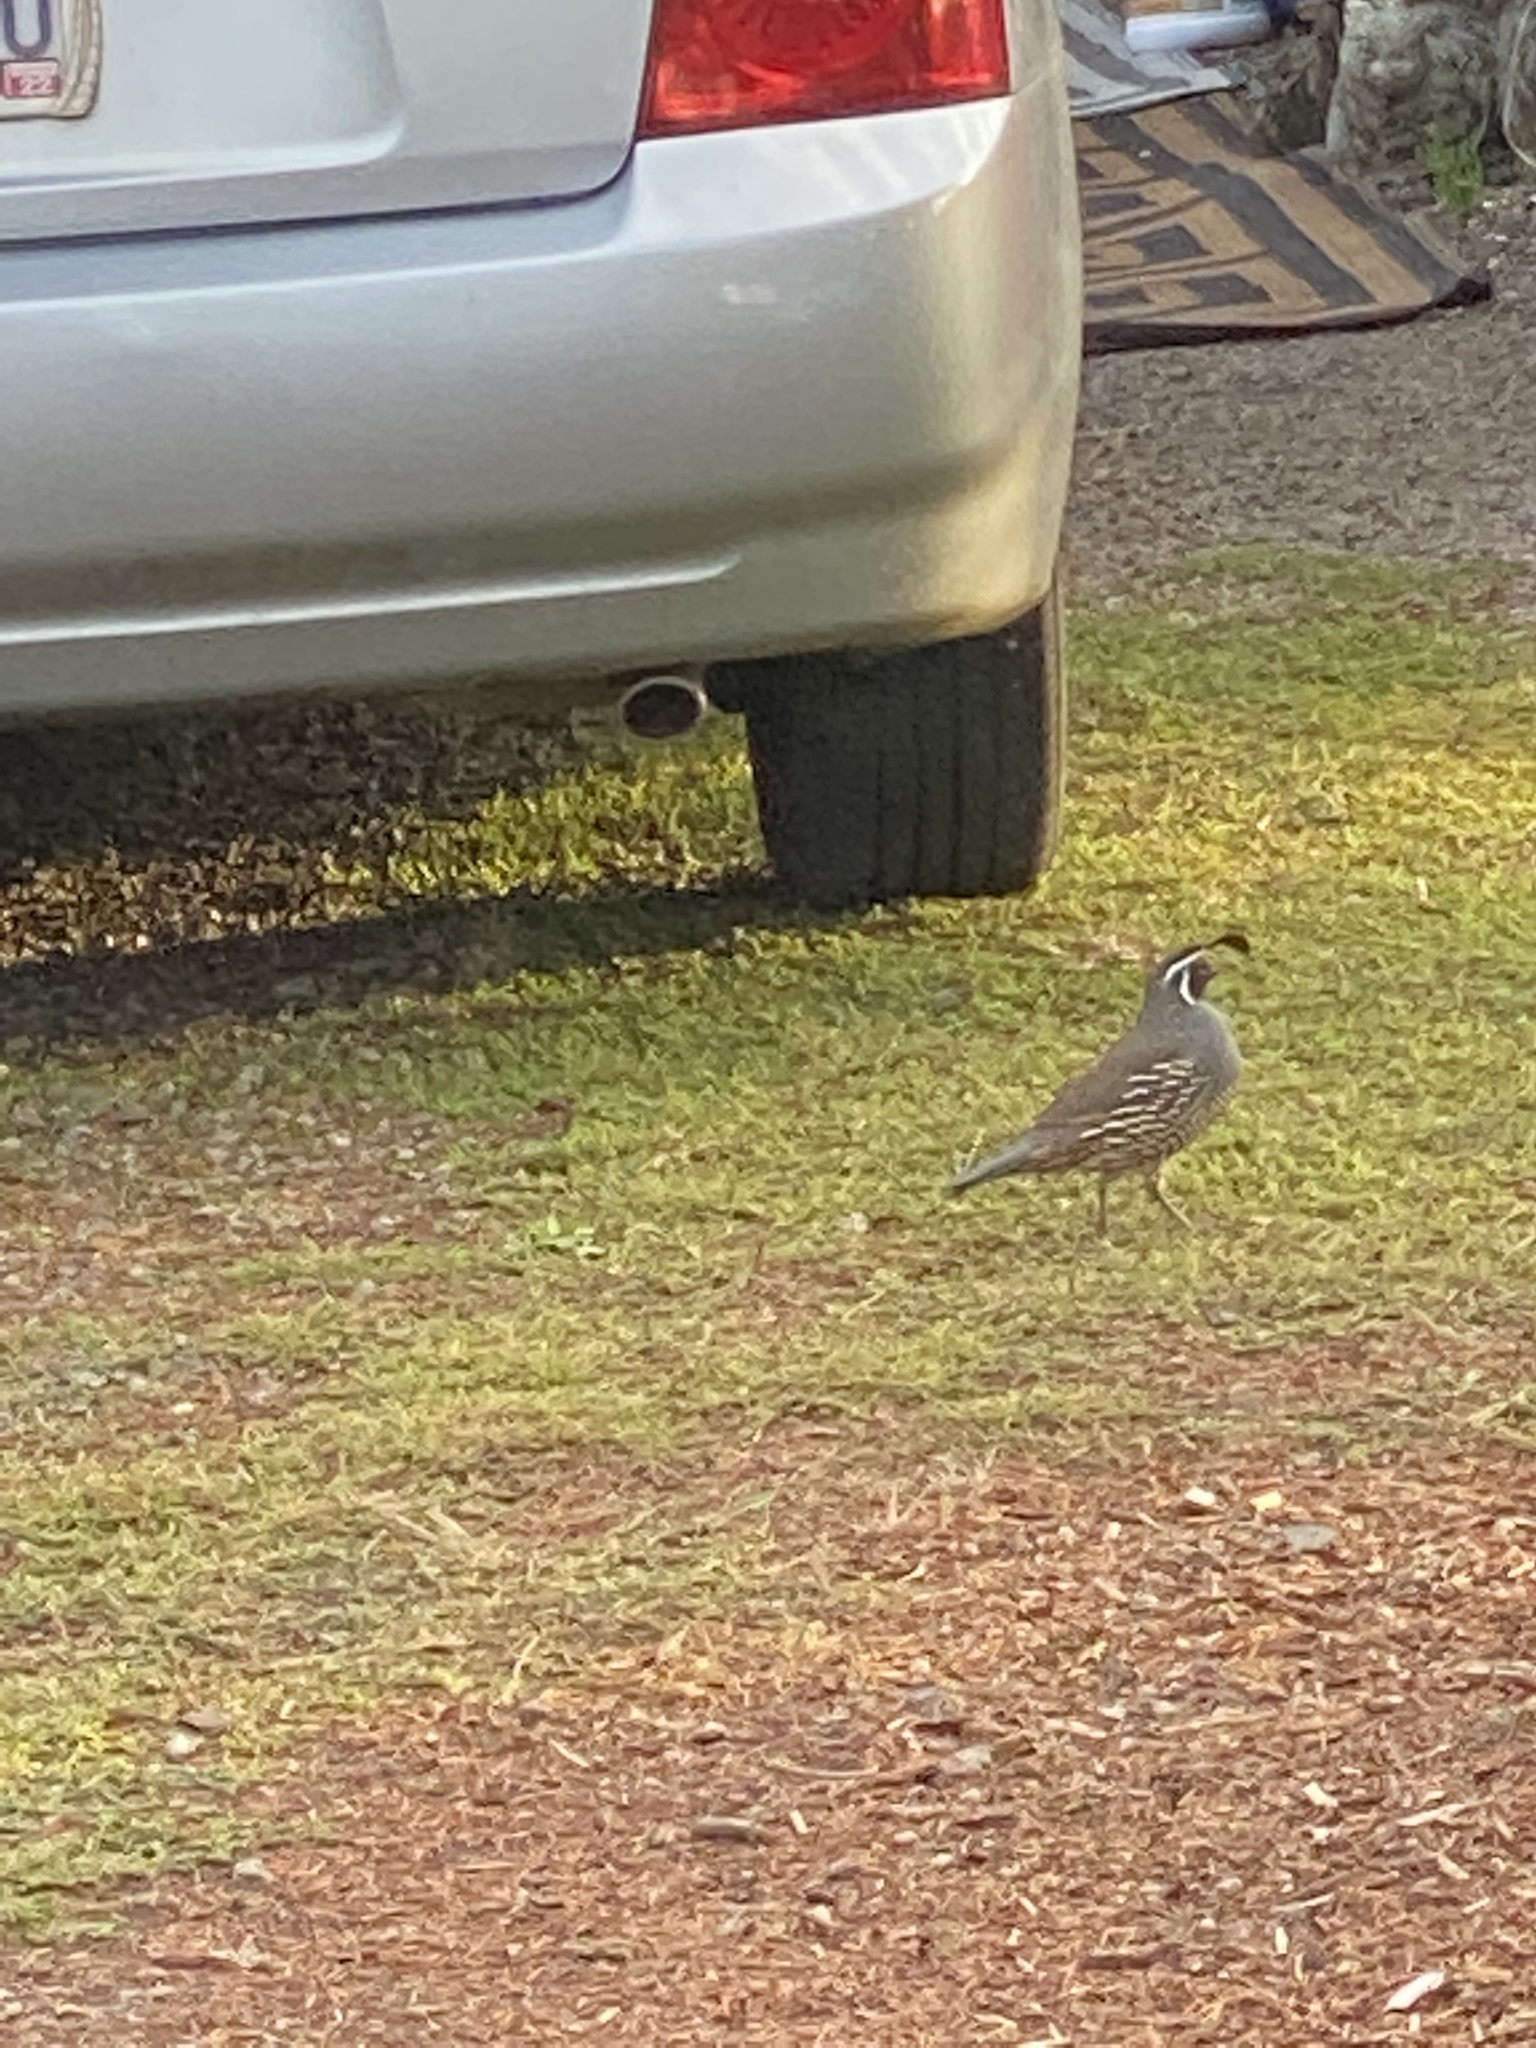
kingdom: Animalia
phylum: Chordata
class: Aves
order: Galliformes
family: Odontophoridae
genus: Callipepla
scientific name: Callipepla californica
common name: California quail
